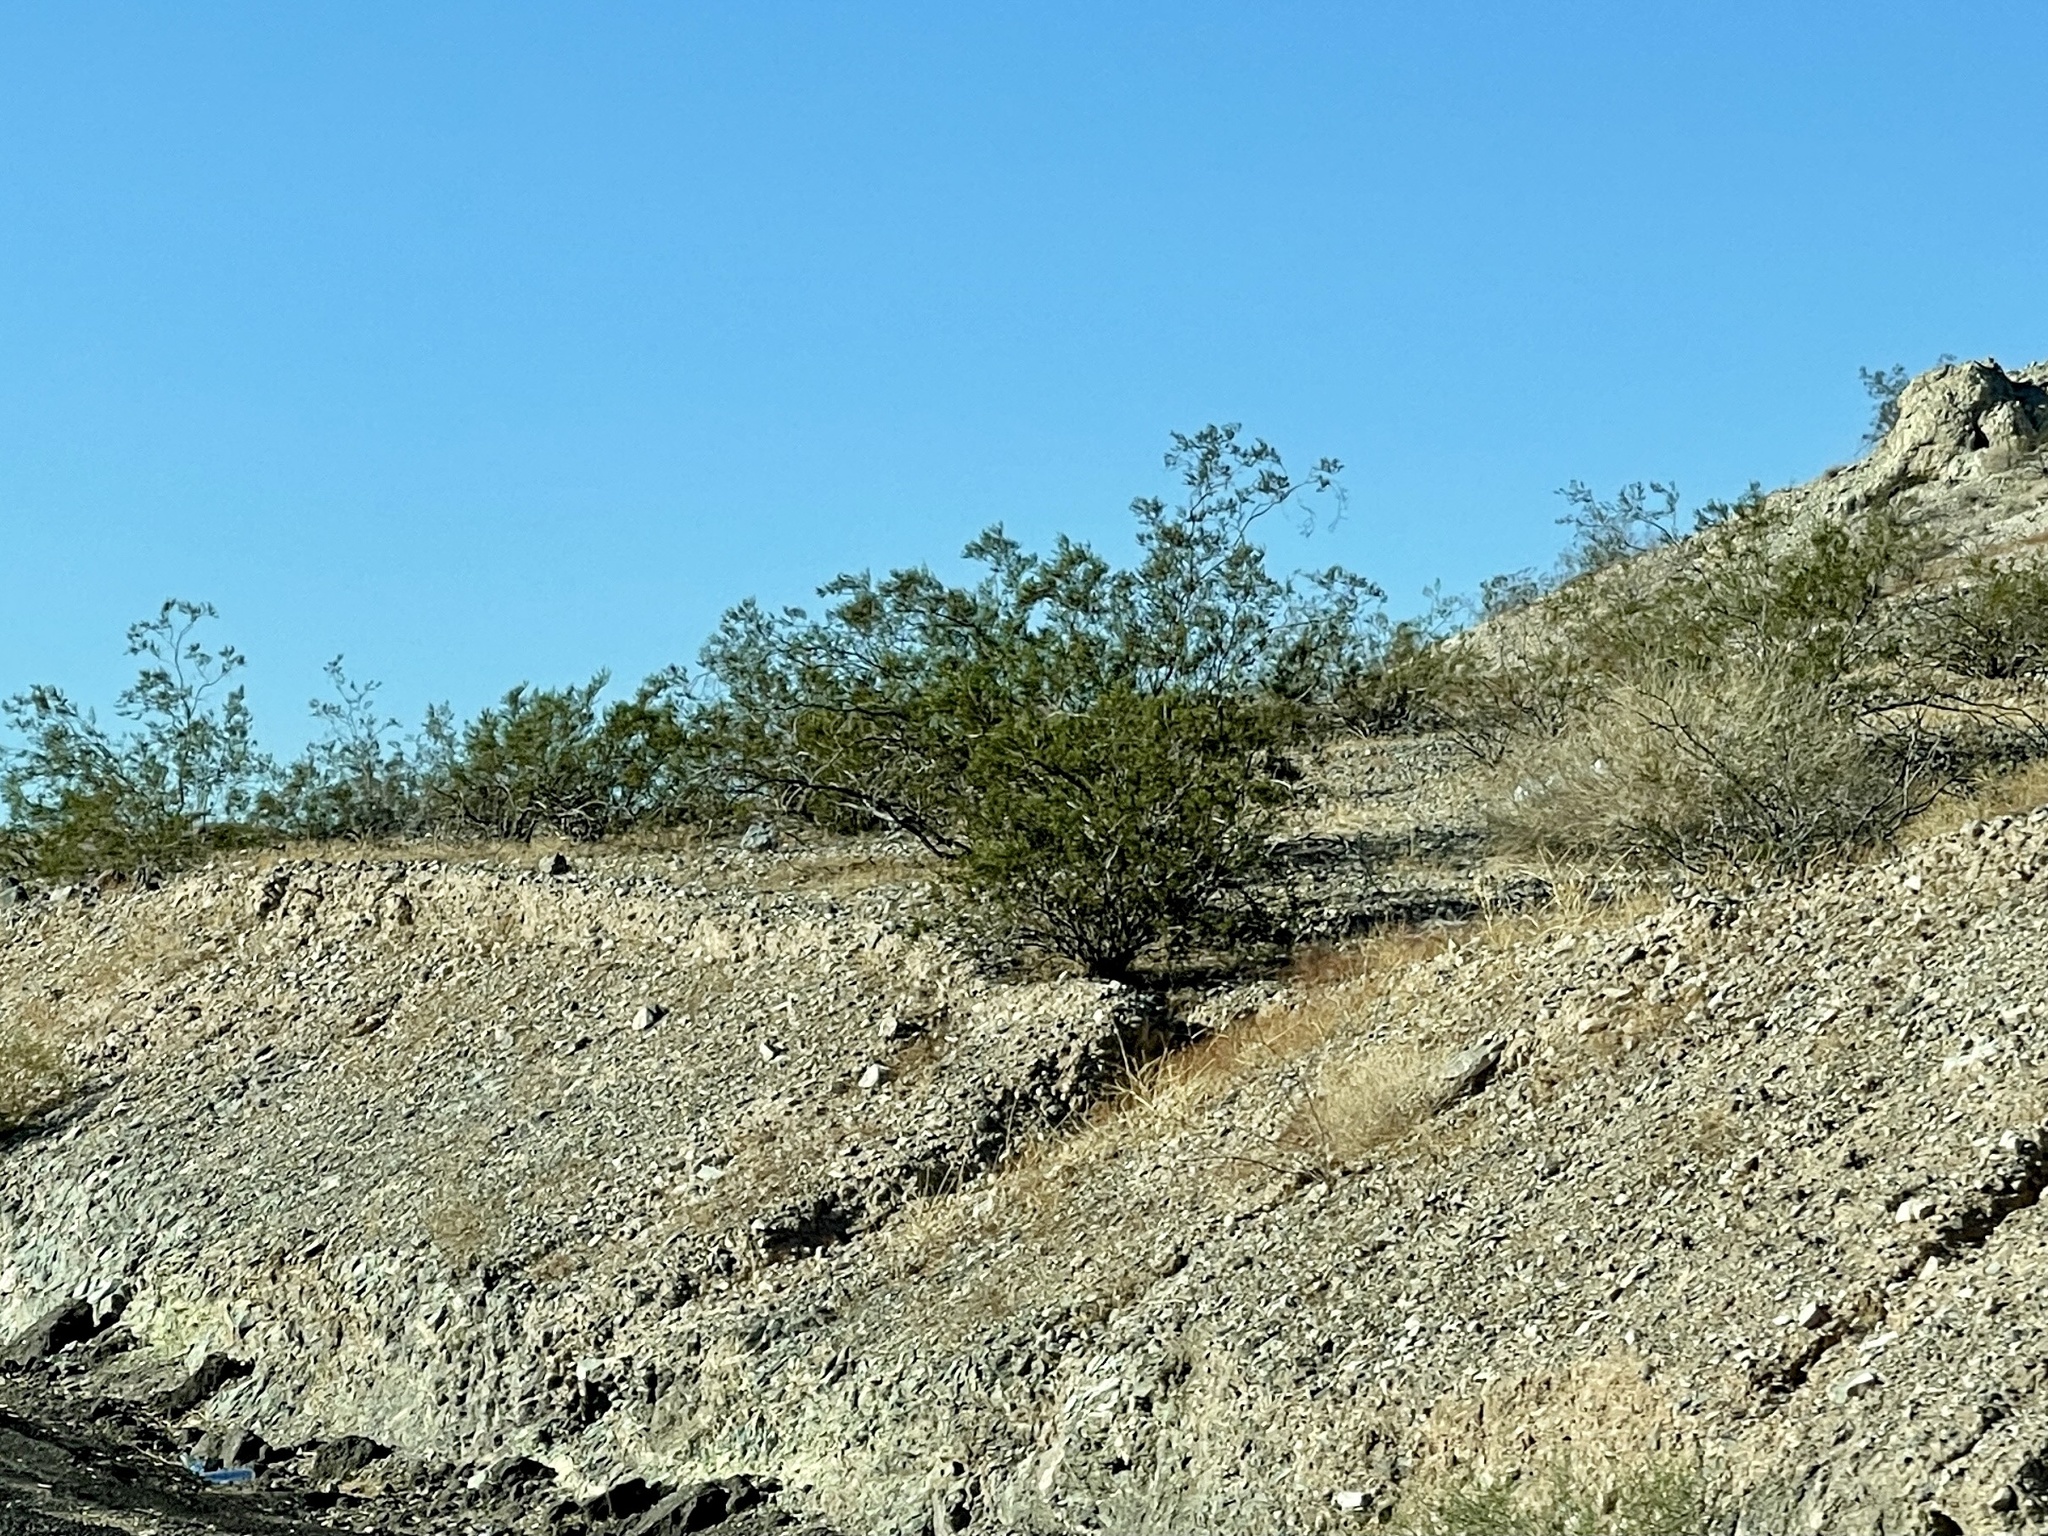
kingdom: Plantae
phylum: Tracheophyta
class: Magnoliopsida
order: Zygophyllales
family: Zygophyllaceae
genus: Larrea
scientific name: Larrea tridentata
